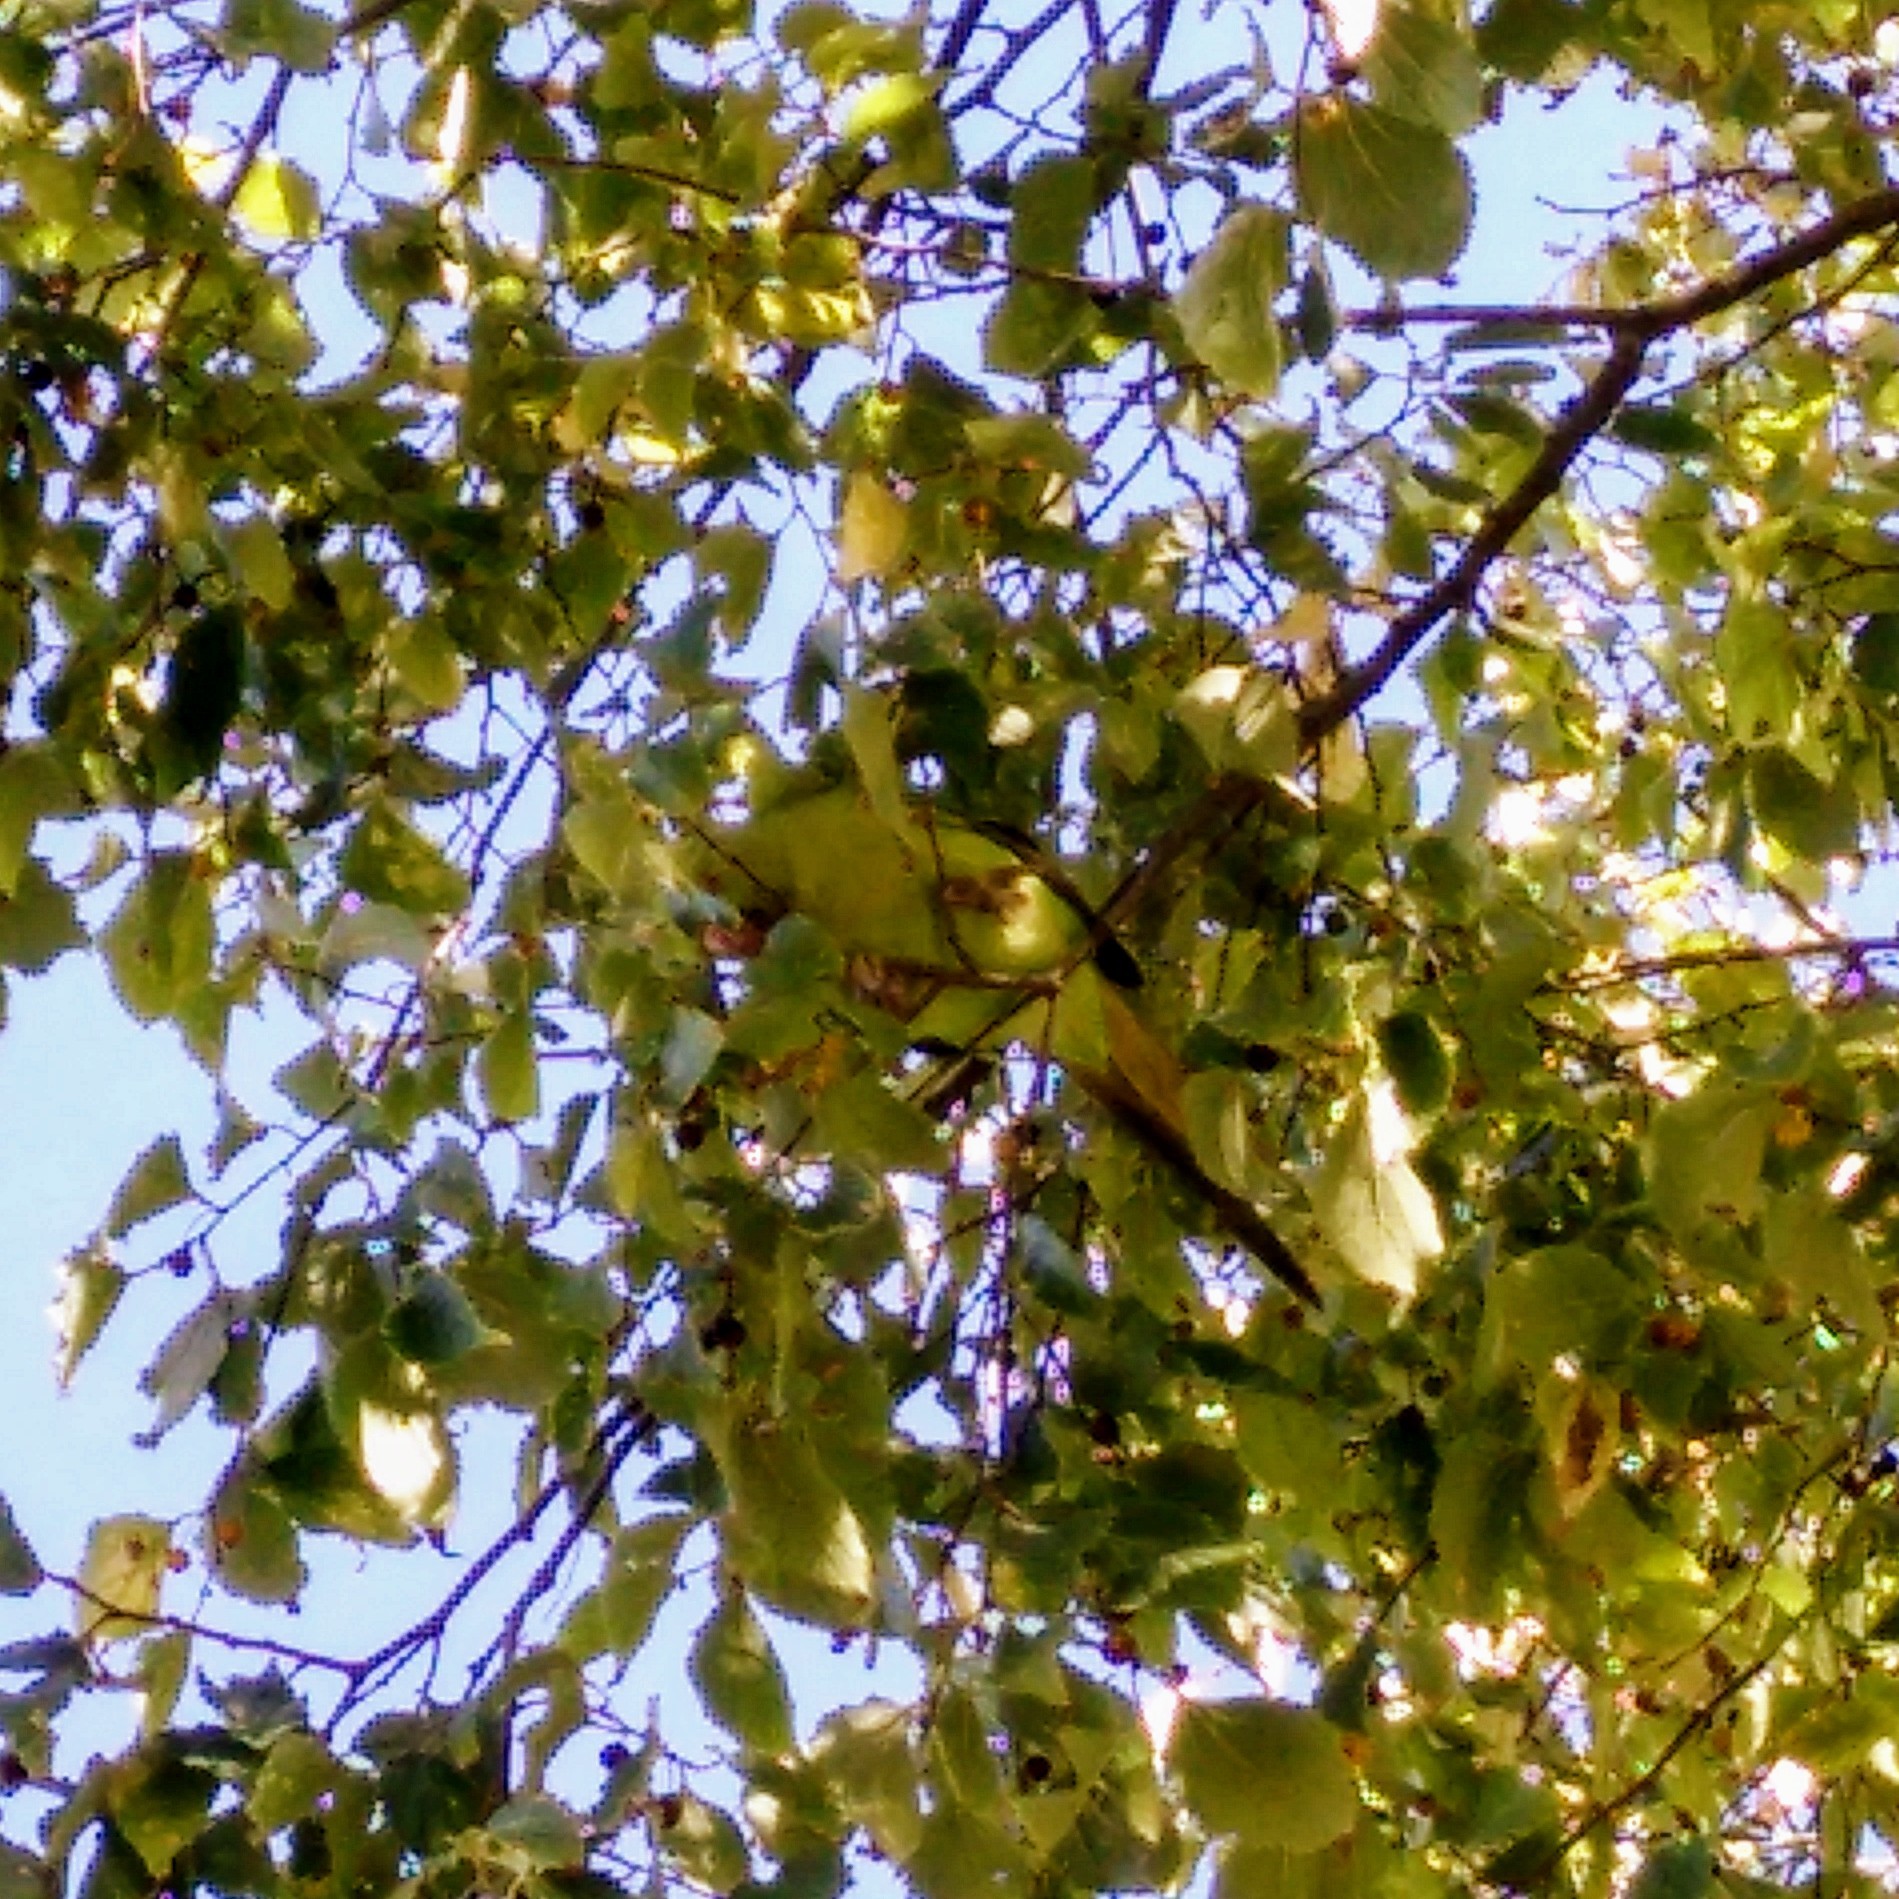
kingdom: Animalia
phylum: Chordata
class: Aves
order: Psittaciformes
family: Psittacidae
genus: Psittacula
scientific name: Psittacula krameri
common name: Rose-ringed parakeet
